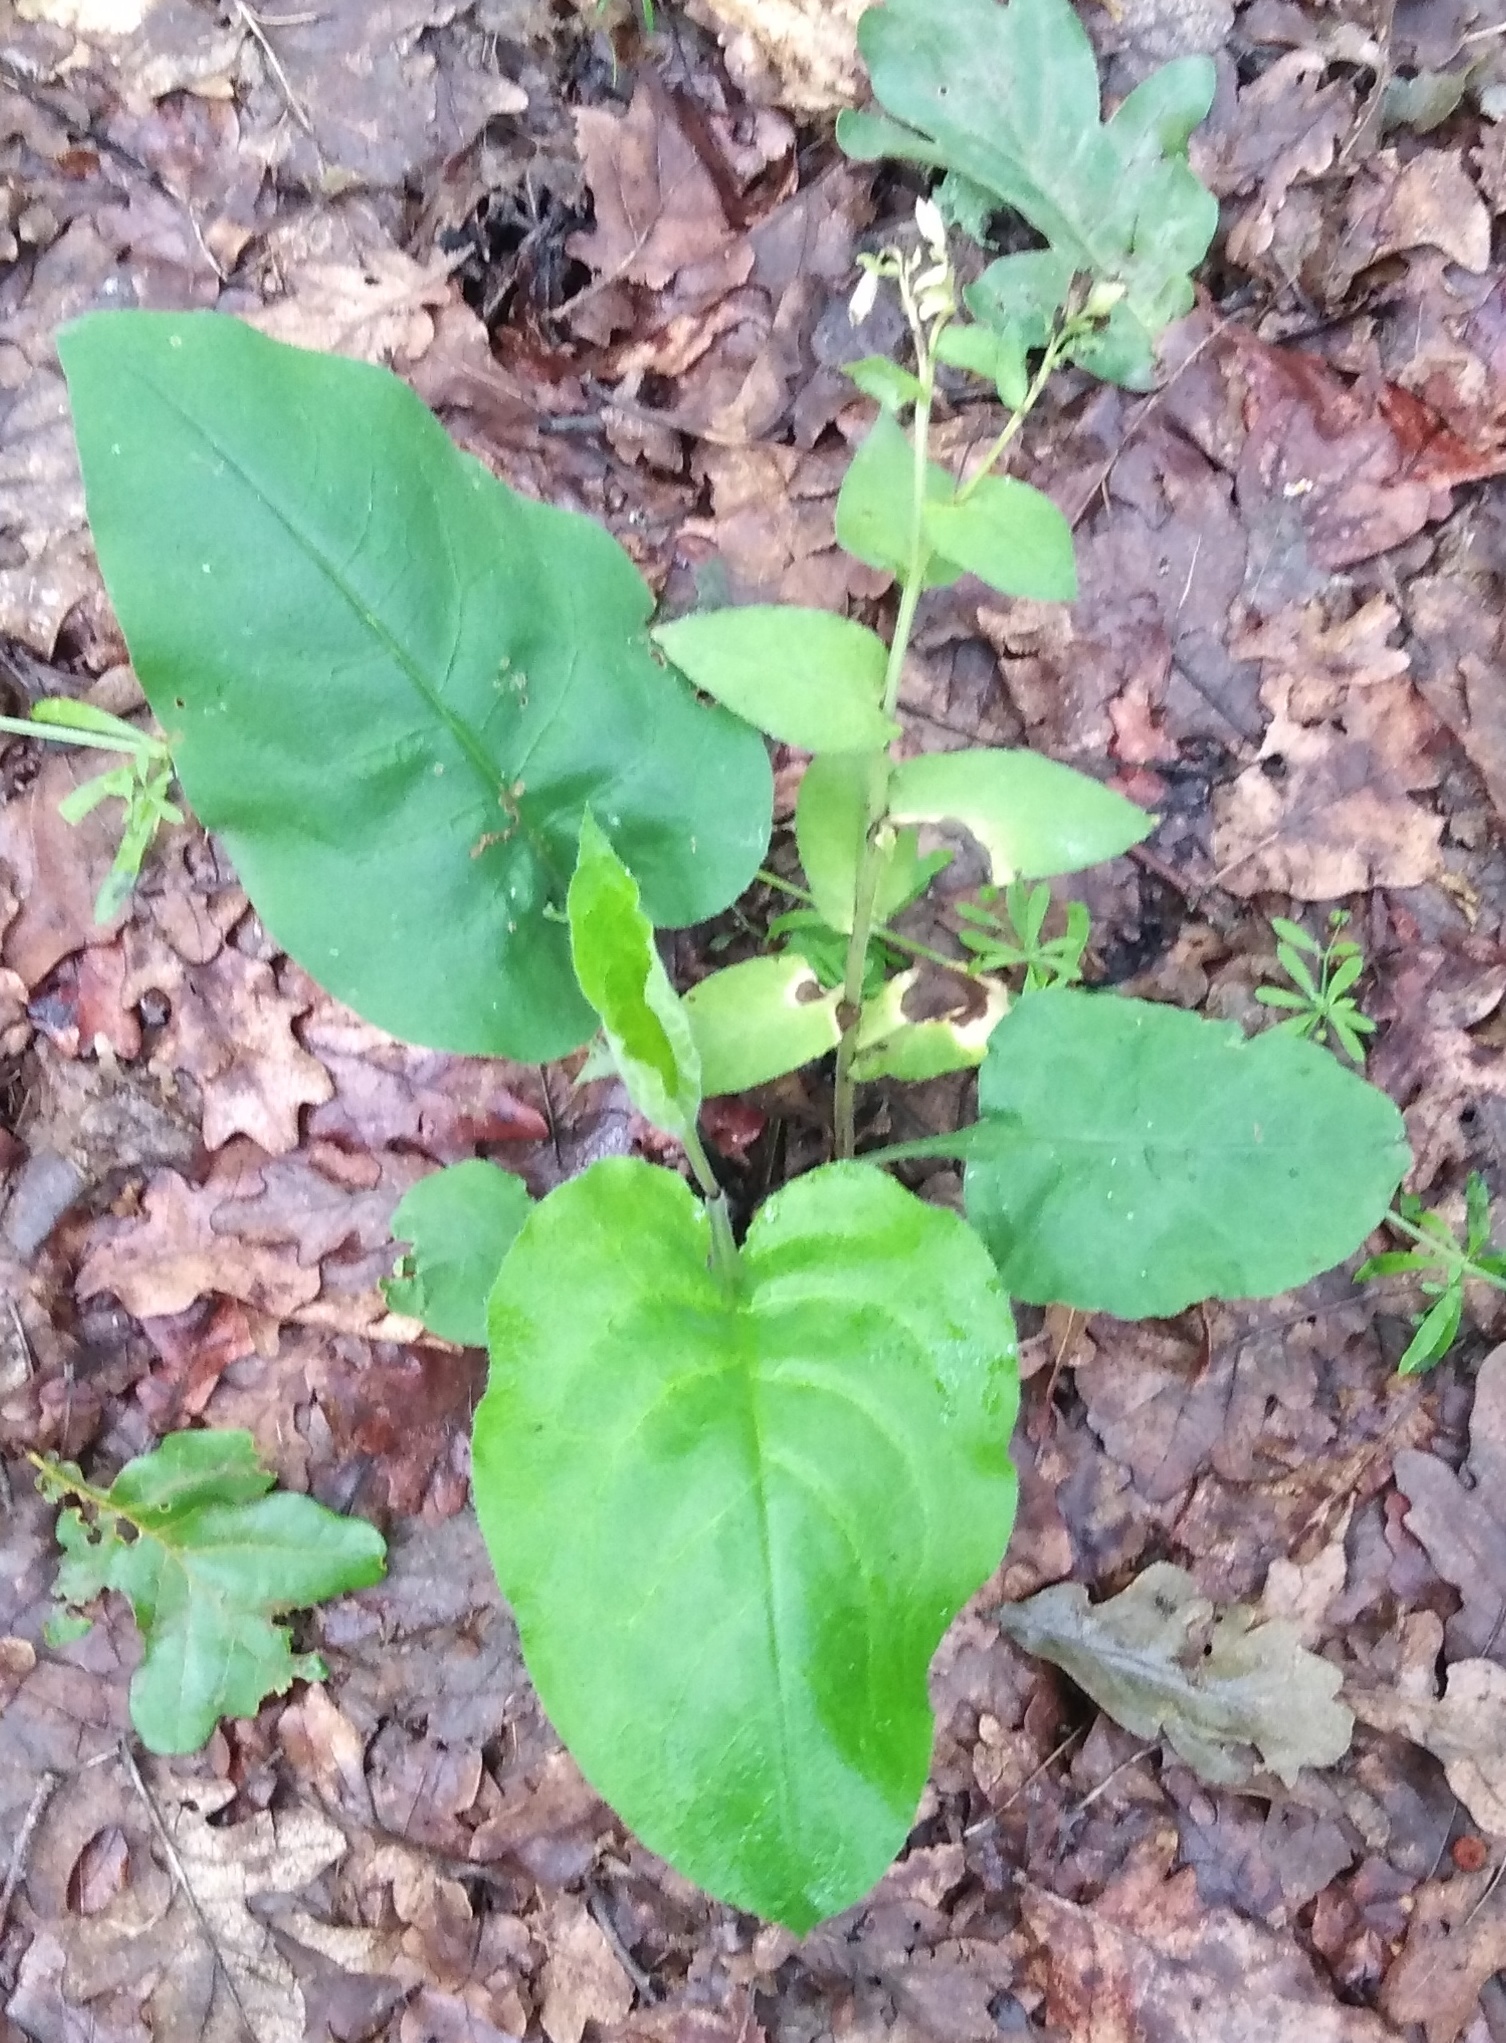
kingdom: Plantae
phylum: Tracheophyta
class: Magnoliopsida
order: Boraginales
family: Boraginaceae
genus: Pulmonaria
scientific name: Pulmonaria obscura
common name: Suffolk lungwort
